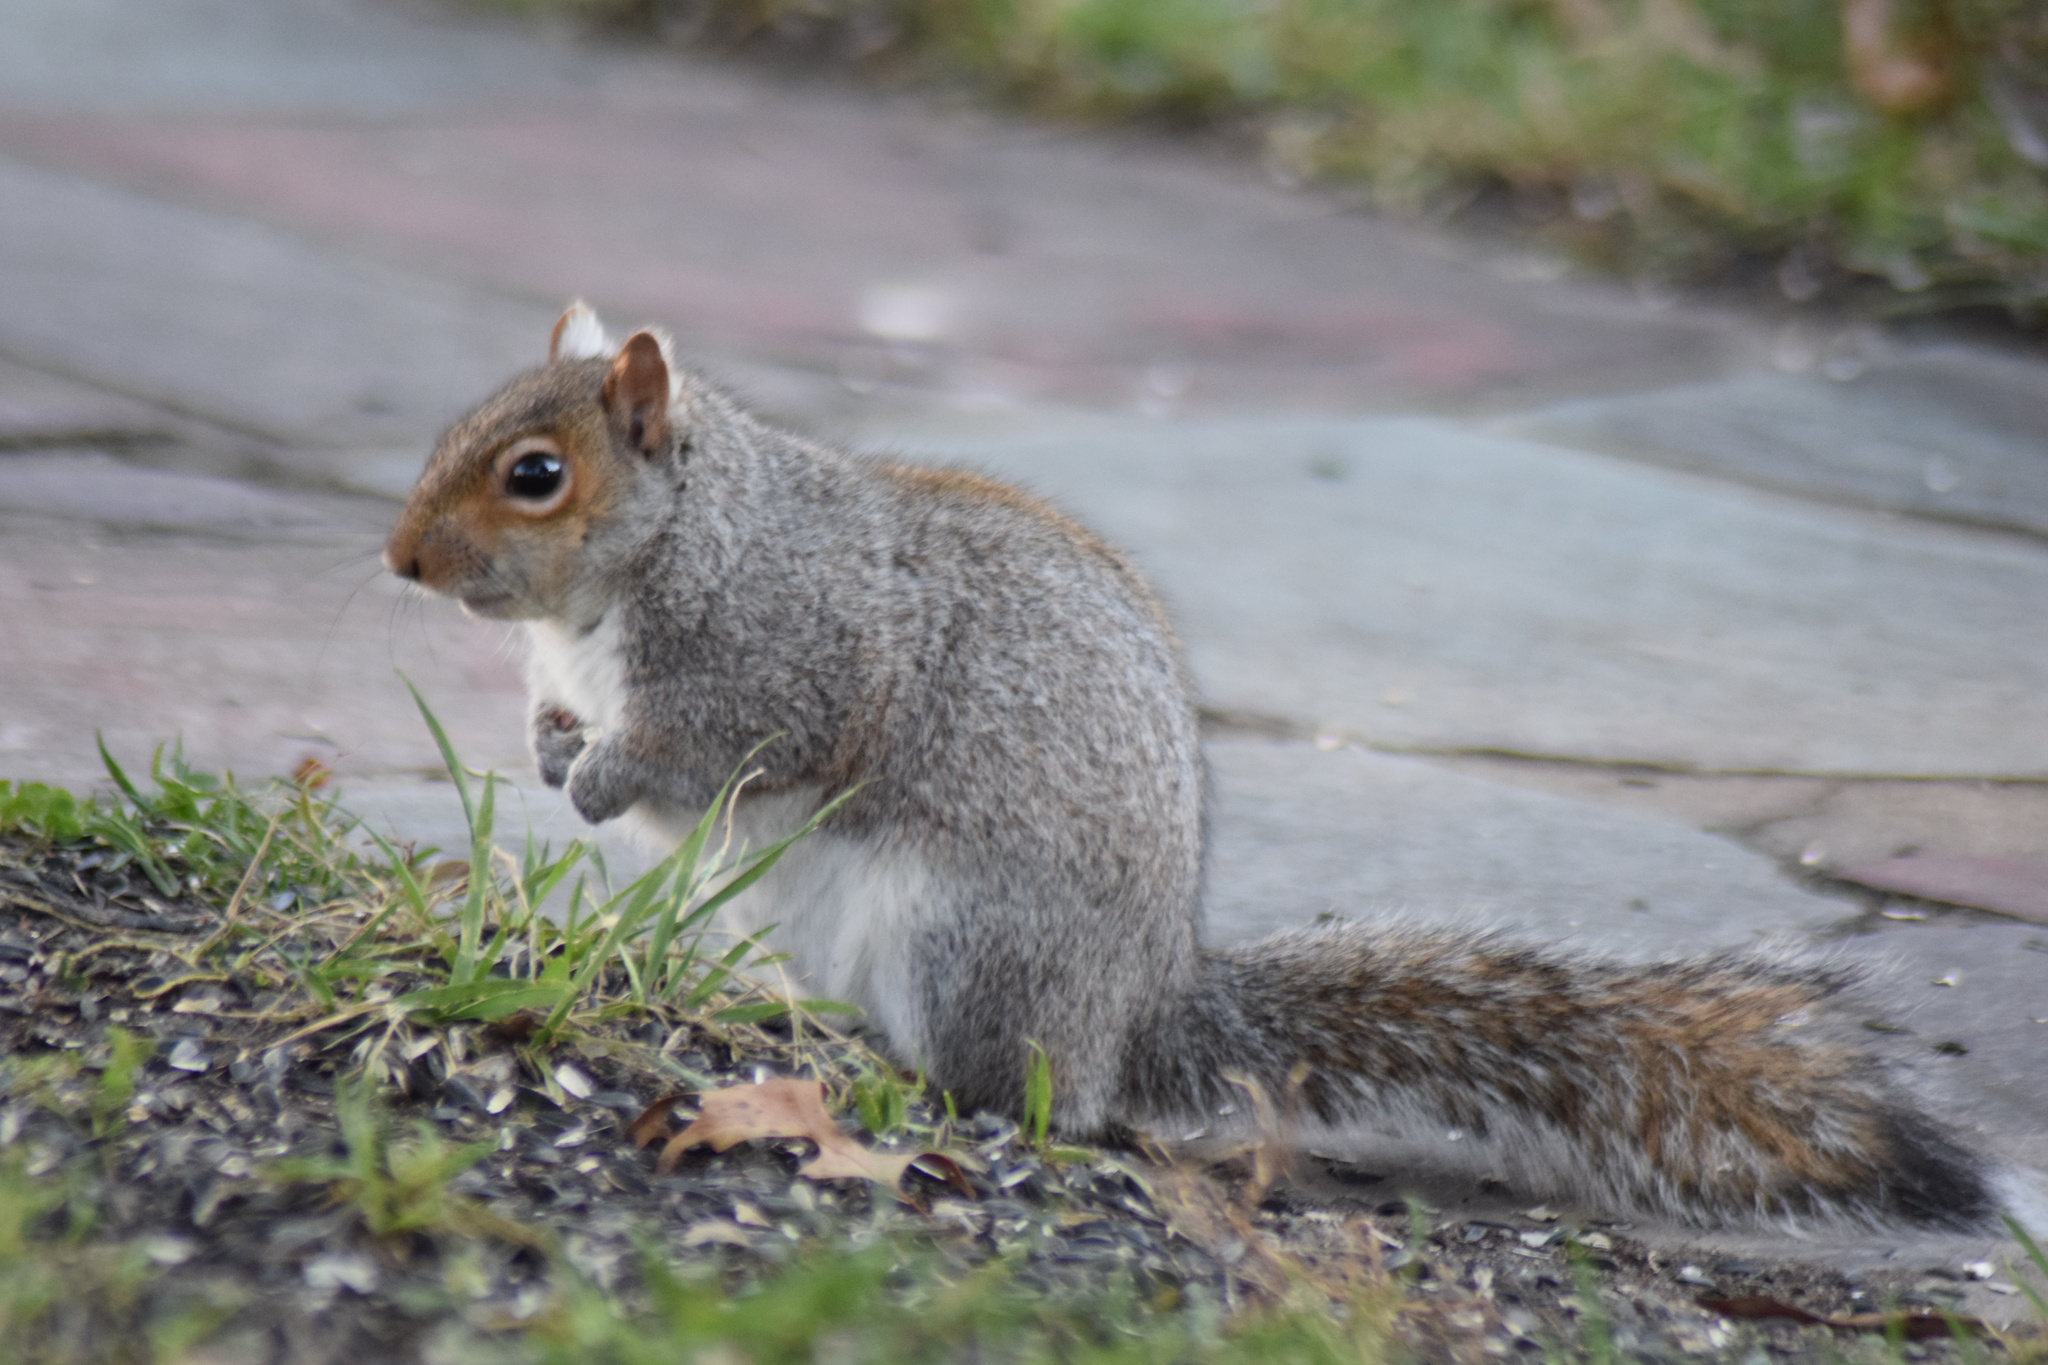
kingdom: Animalia
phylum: Chordata
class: Mammalia
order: Rodentia
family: Sciuridae
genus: Sciurus
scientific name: Sciurus carolinensis
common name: Eastern gray squirrel
